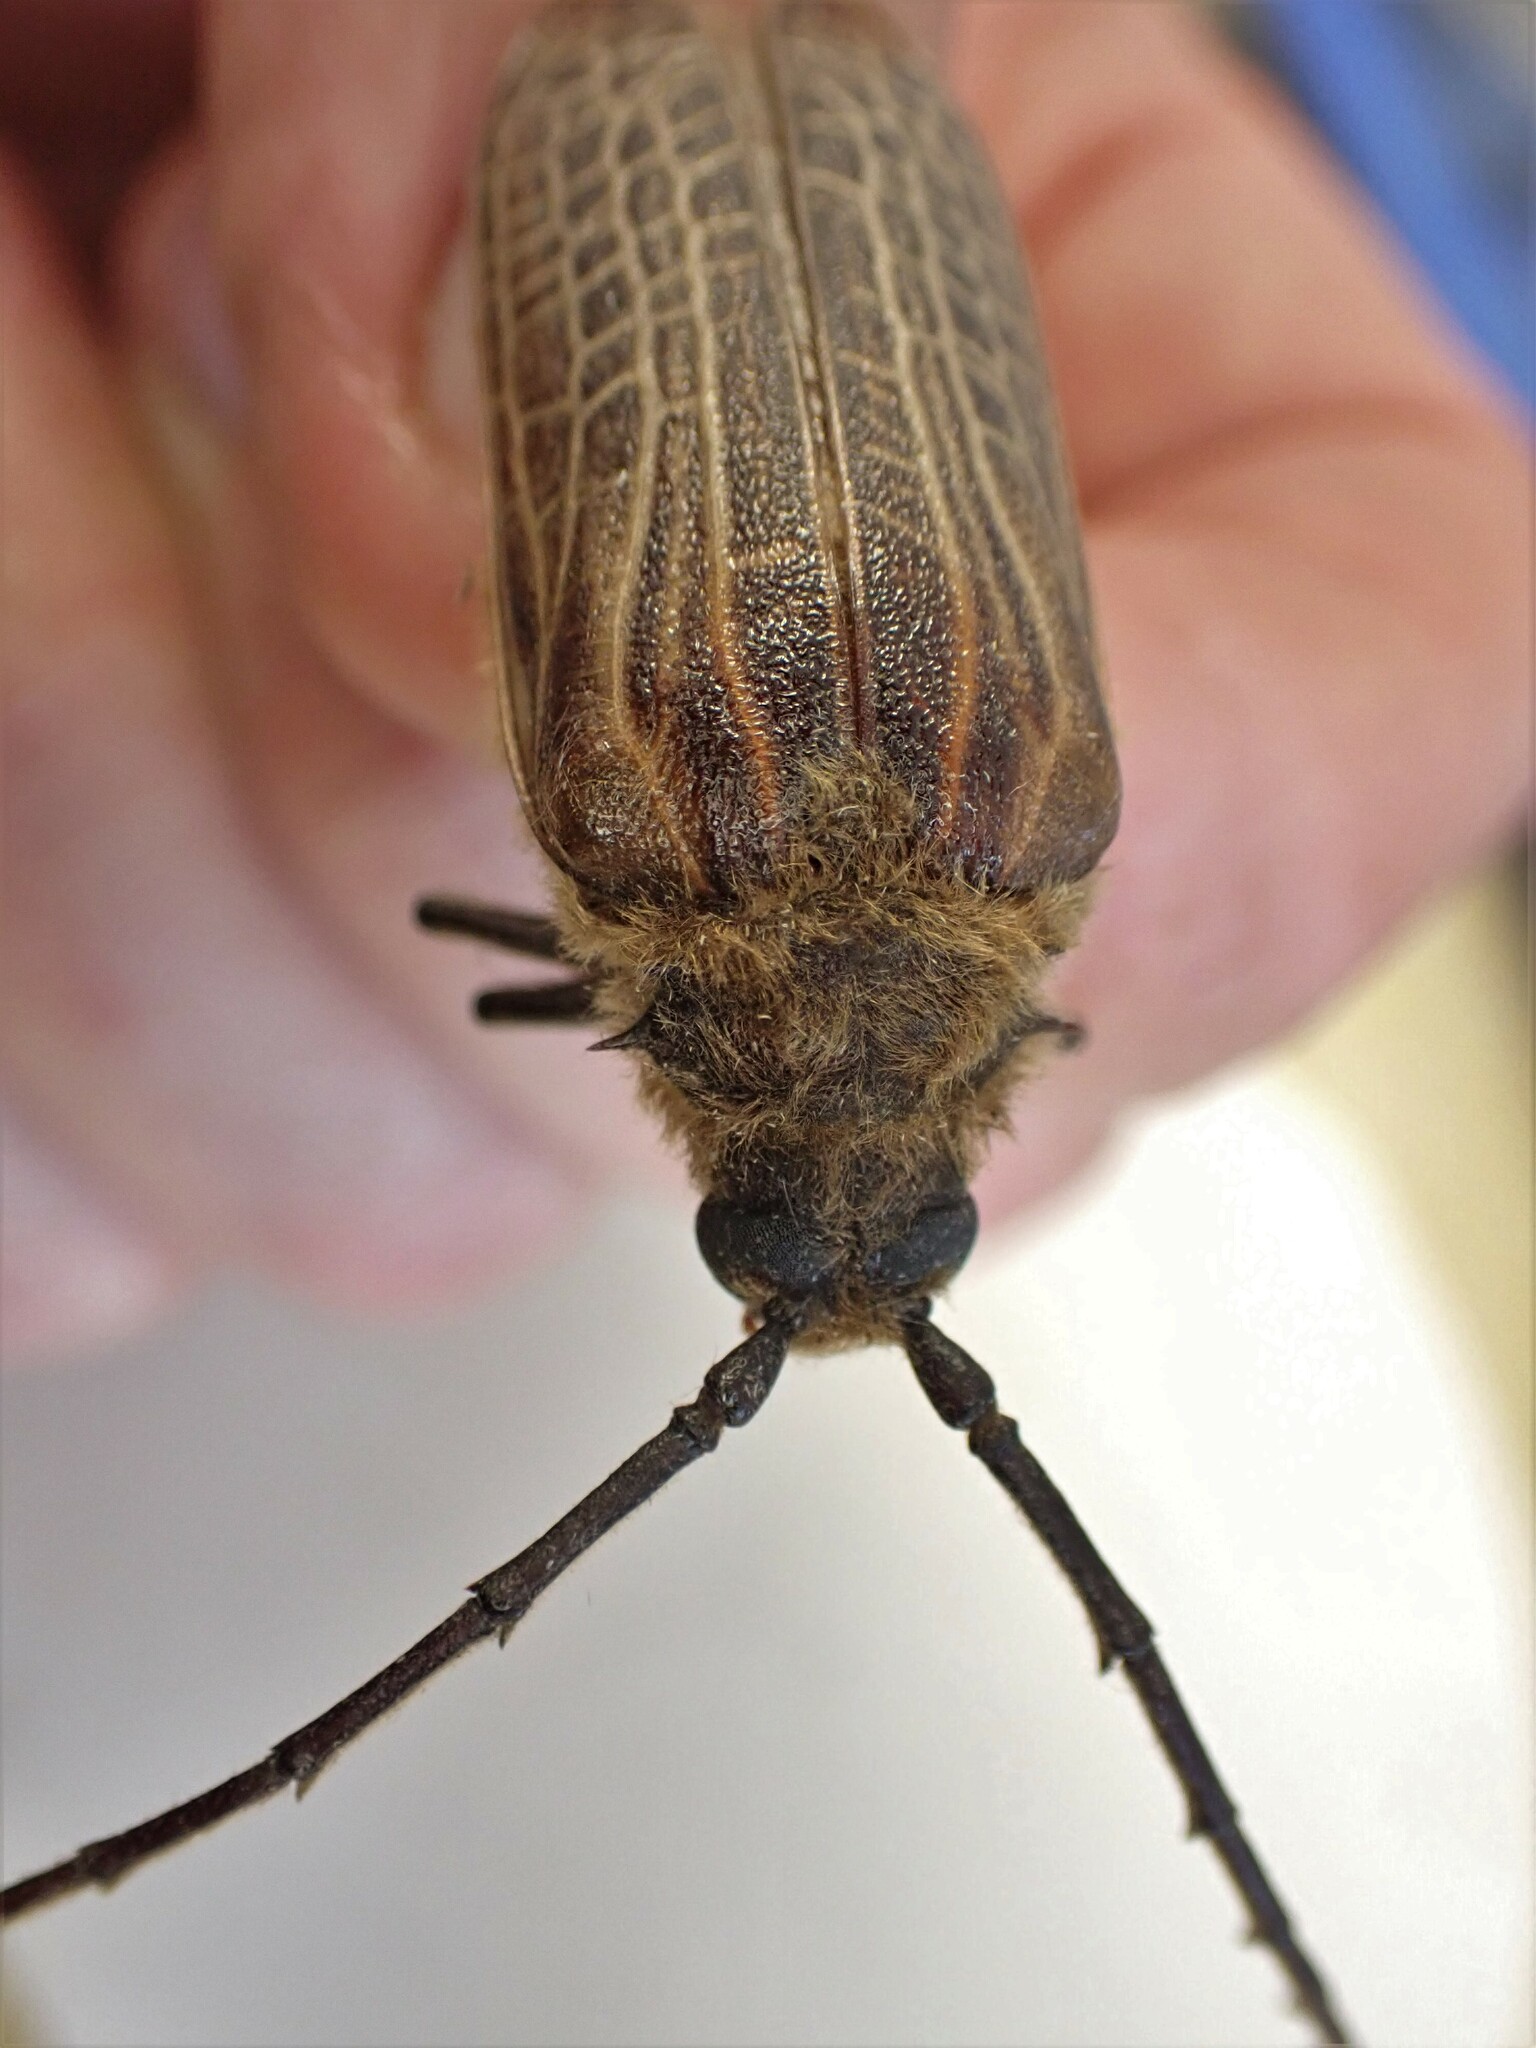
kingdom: Animalia
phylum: Arthropoda
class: Insecta
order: Coleoptera
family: Cerambycidae
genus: Prionoplus
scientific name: Prionoplus reticularis
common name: Huhu beetle
